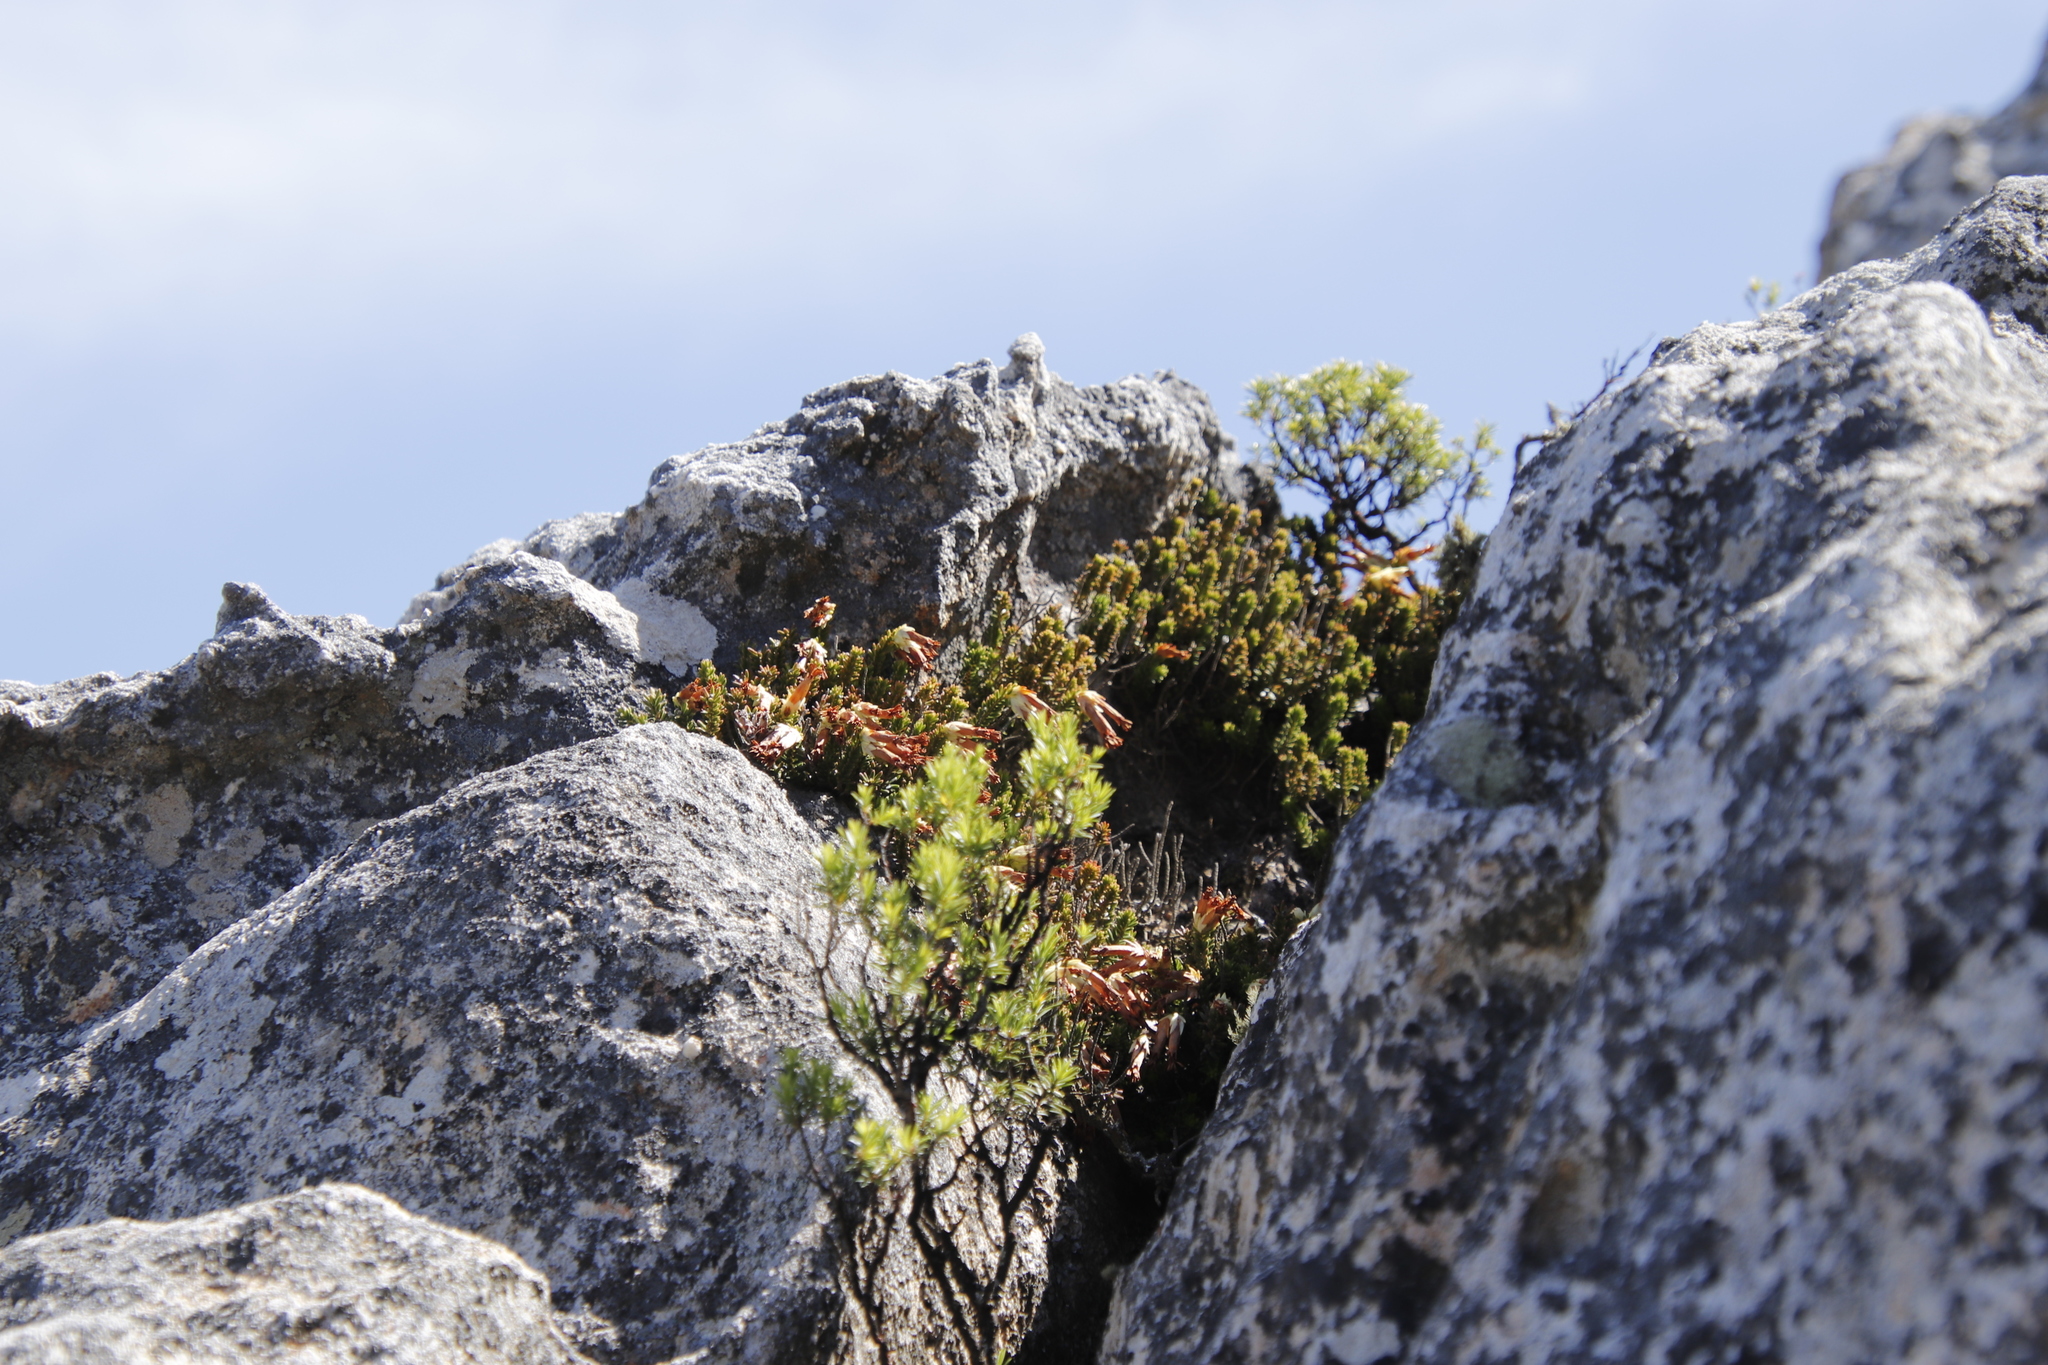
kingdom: Plantae
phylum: Tracheophyta
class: Magnoliopsida
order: Ericales
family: Ericaceae
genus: Erica
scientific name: Erica banksia
